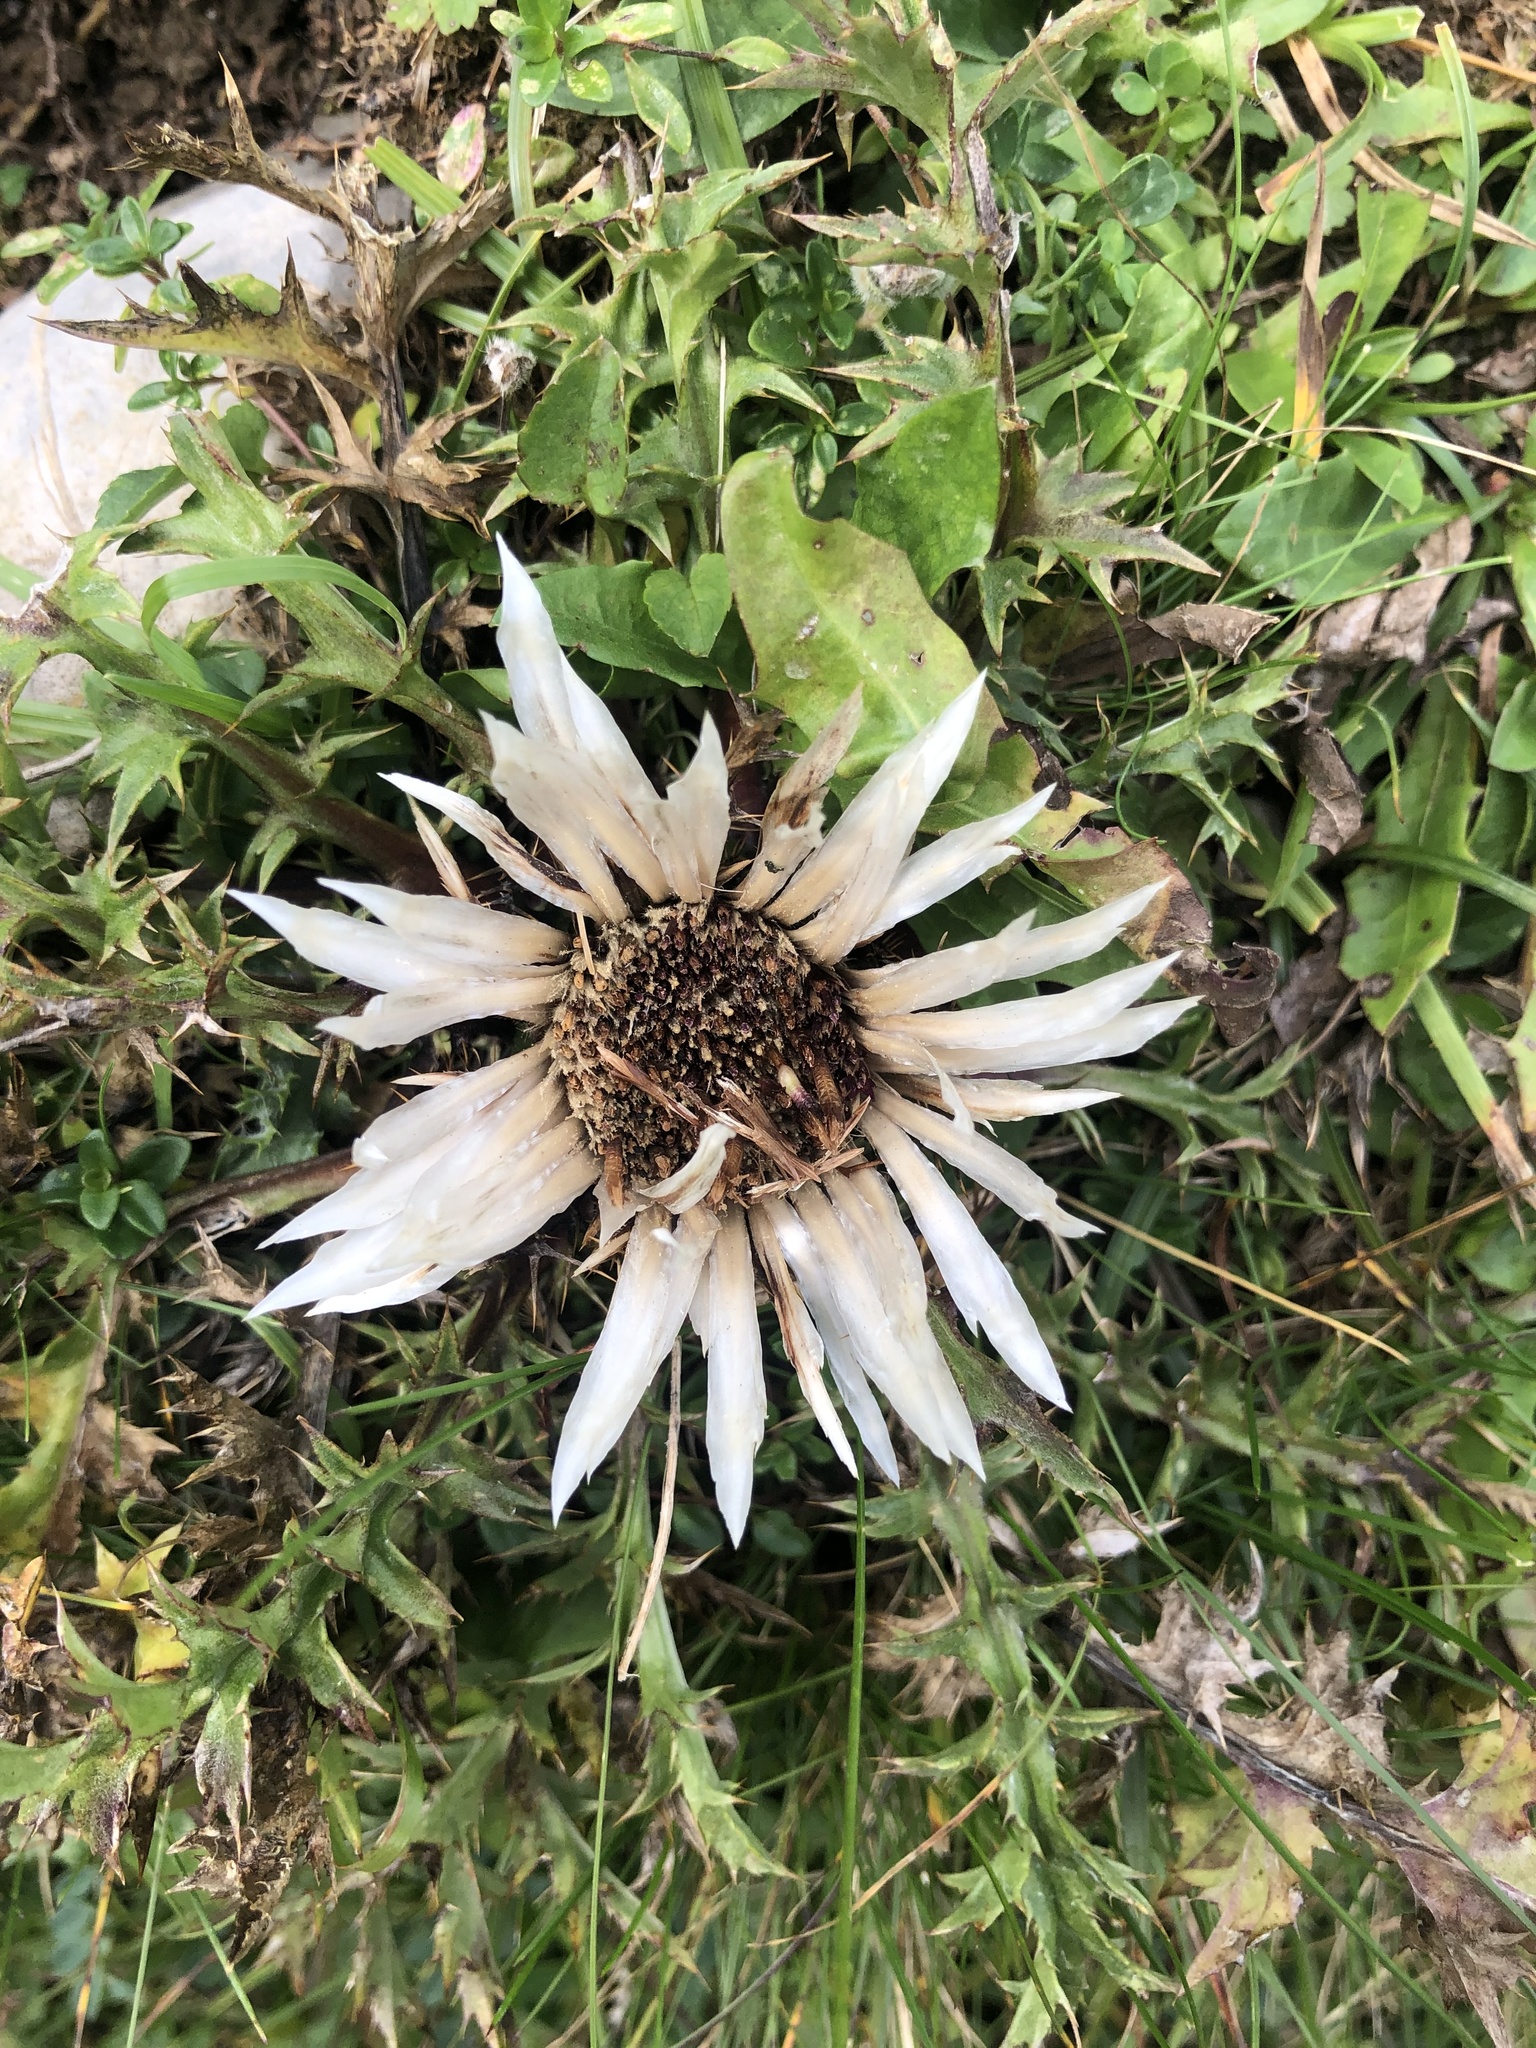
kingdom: Plantae
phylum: Tracheophyta
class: Magnoliopsida
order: Asterales
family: Asteraceae
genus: Carlina
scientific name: Carlina acaulis
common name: Stemless carline thistle
